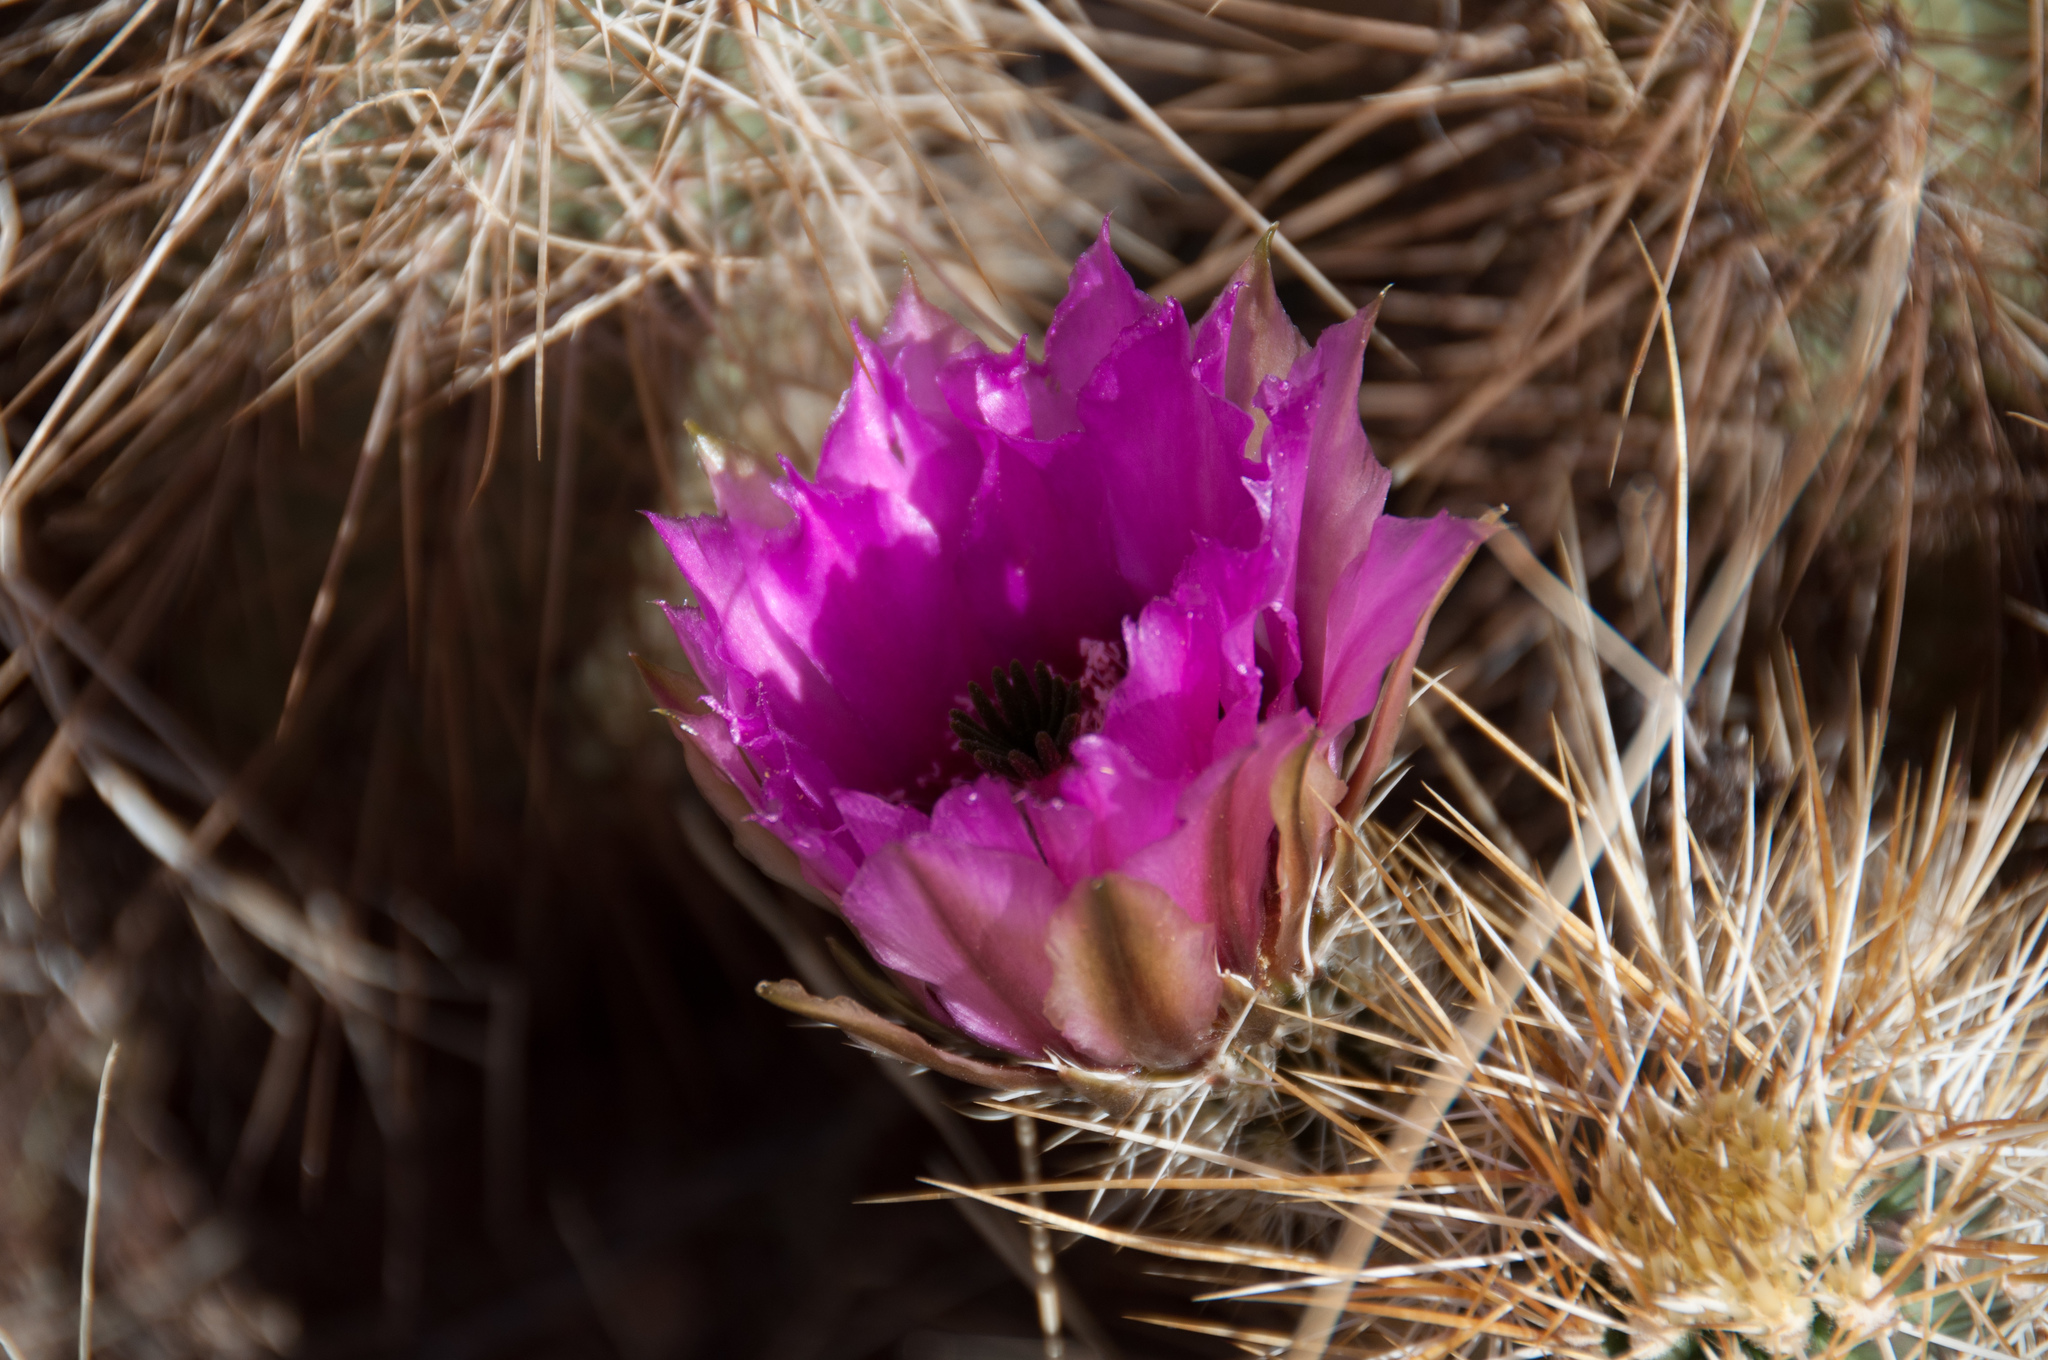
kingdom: Plantae
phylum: Tracheophyta
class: Magnoliopsida
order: Caryophyllales
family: Cactaceae
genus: Echinocereus
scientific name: Echinocereus engelmannii
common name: Engelmann's hedgehog cactus
